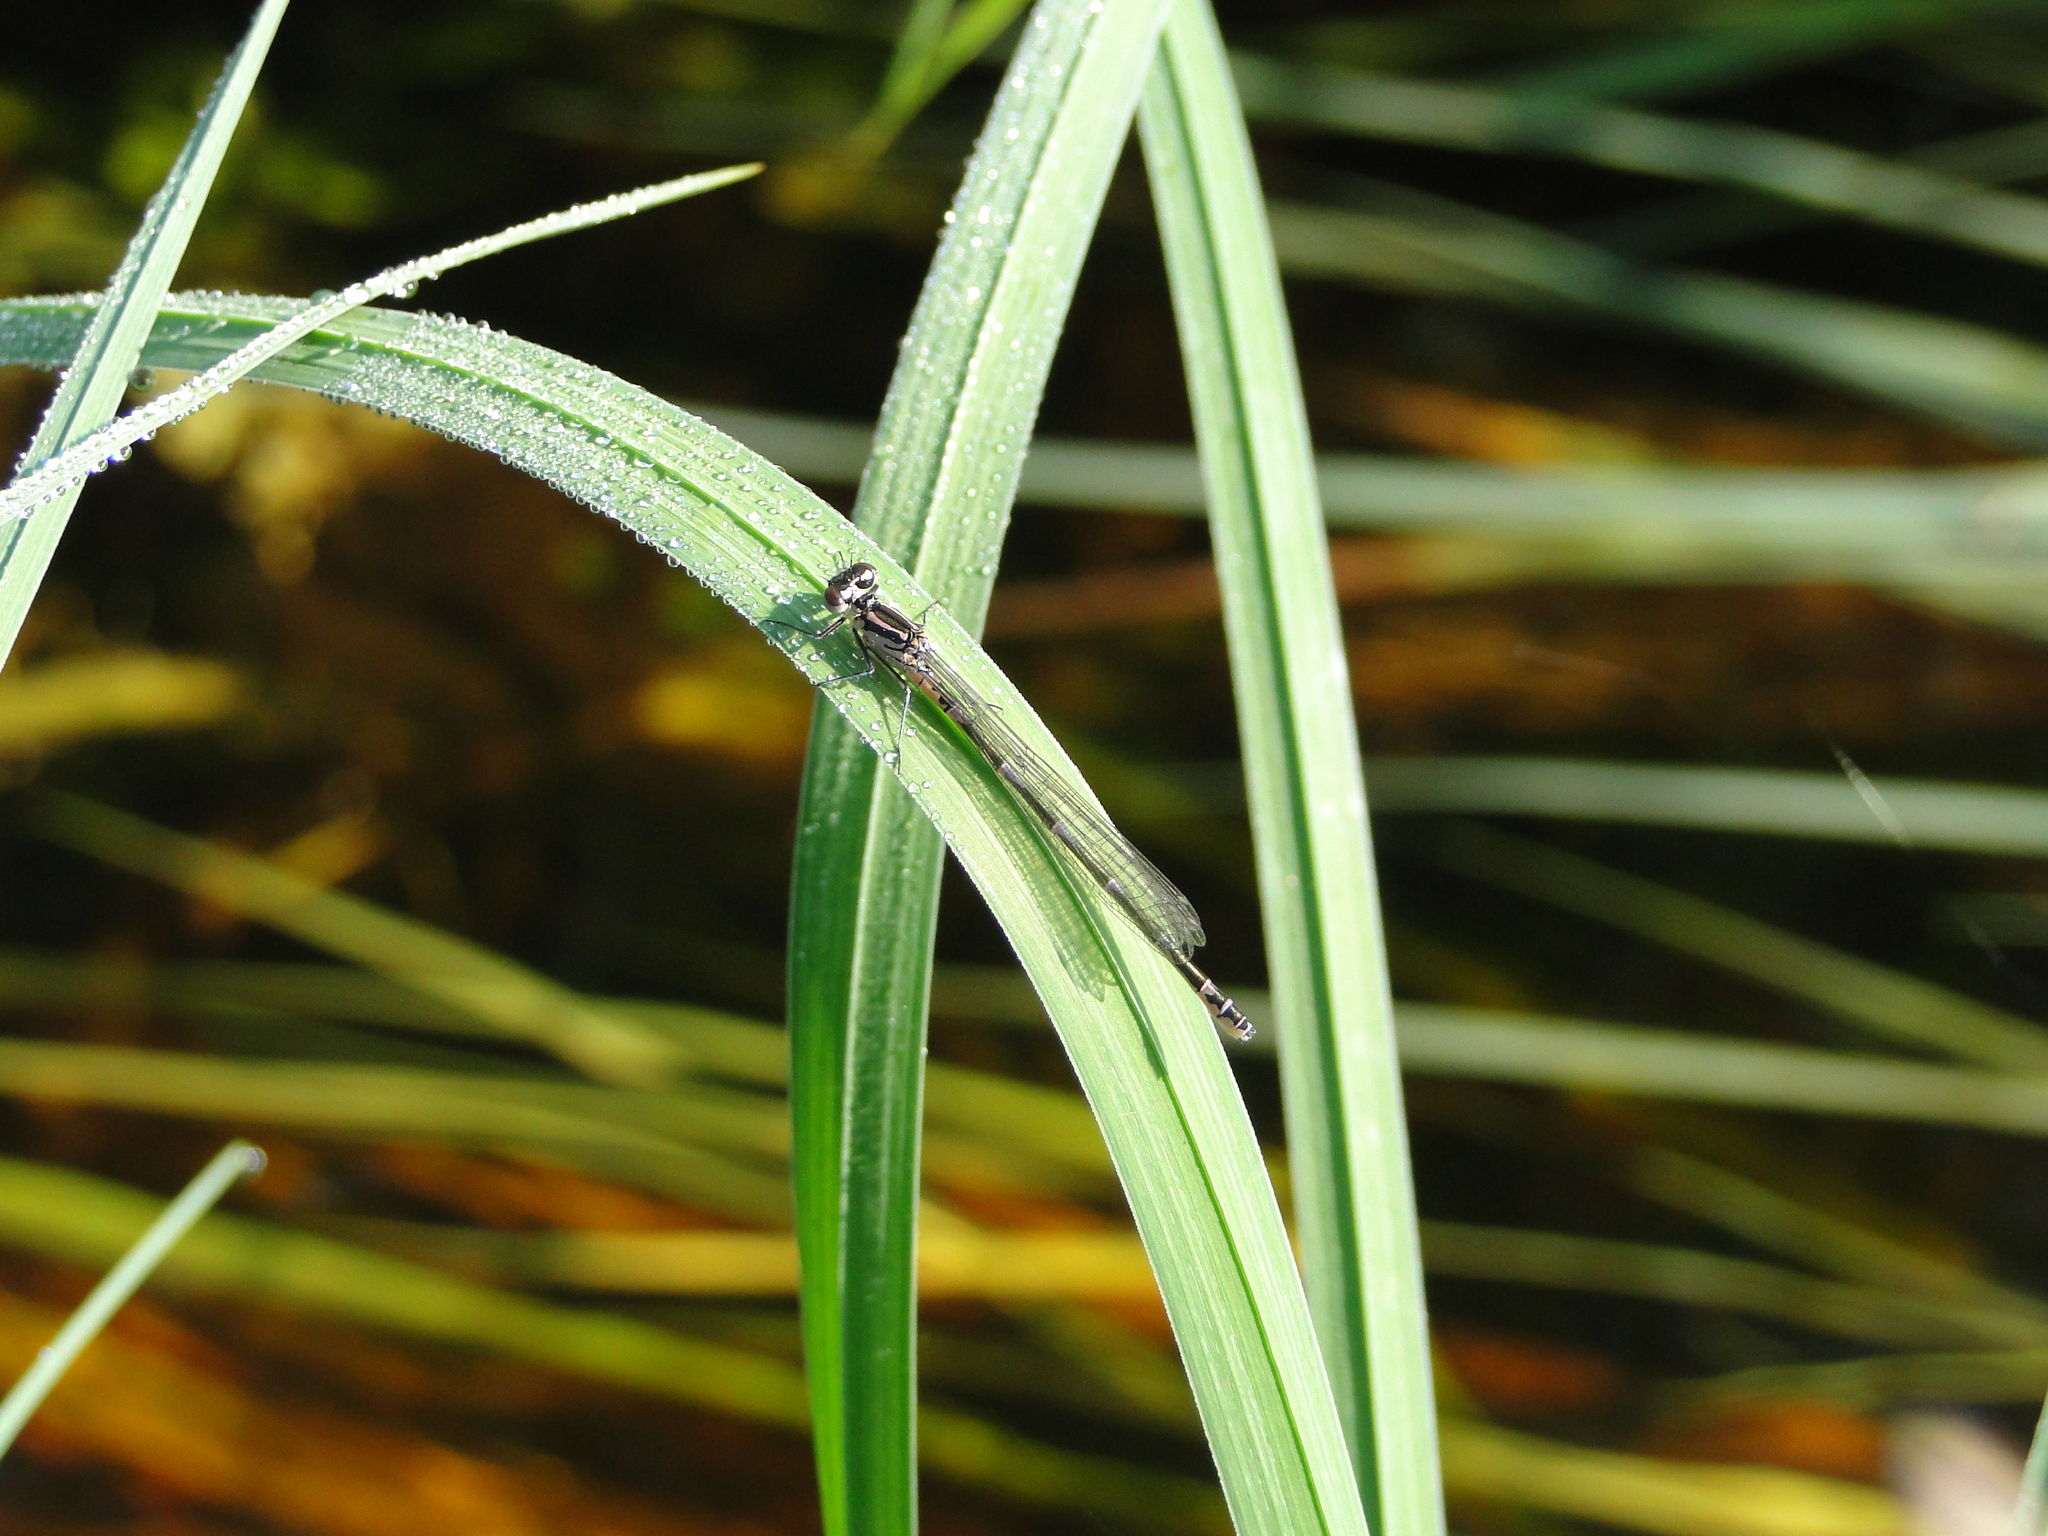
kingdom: Animalia
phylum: Arthropoda
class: Insecta
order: Odonata
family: Coenagrionidae
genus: Coenagrion
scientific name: Coenagrion pulchellum
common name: Variable bluet
